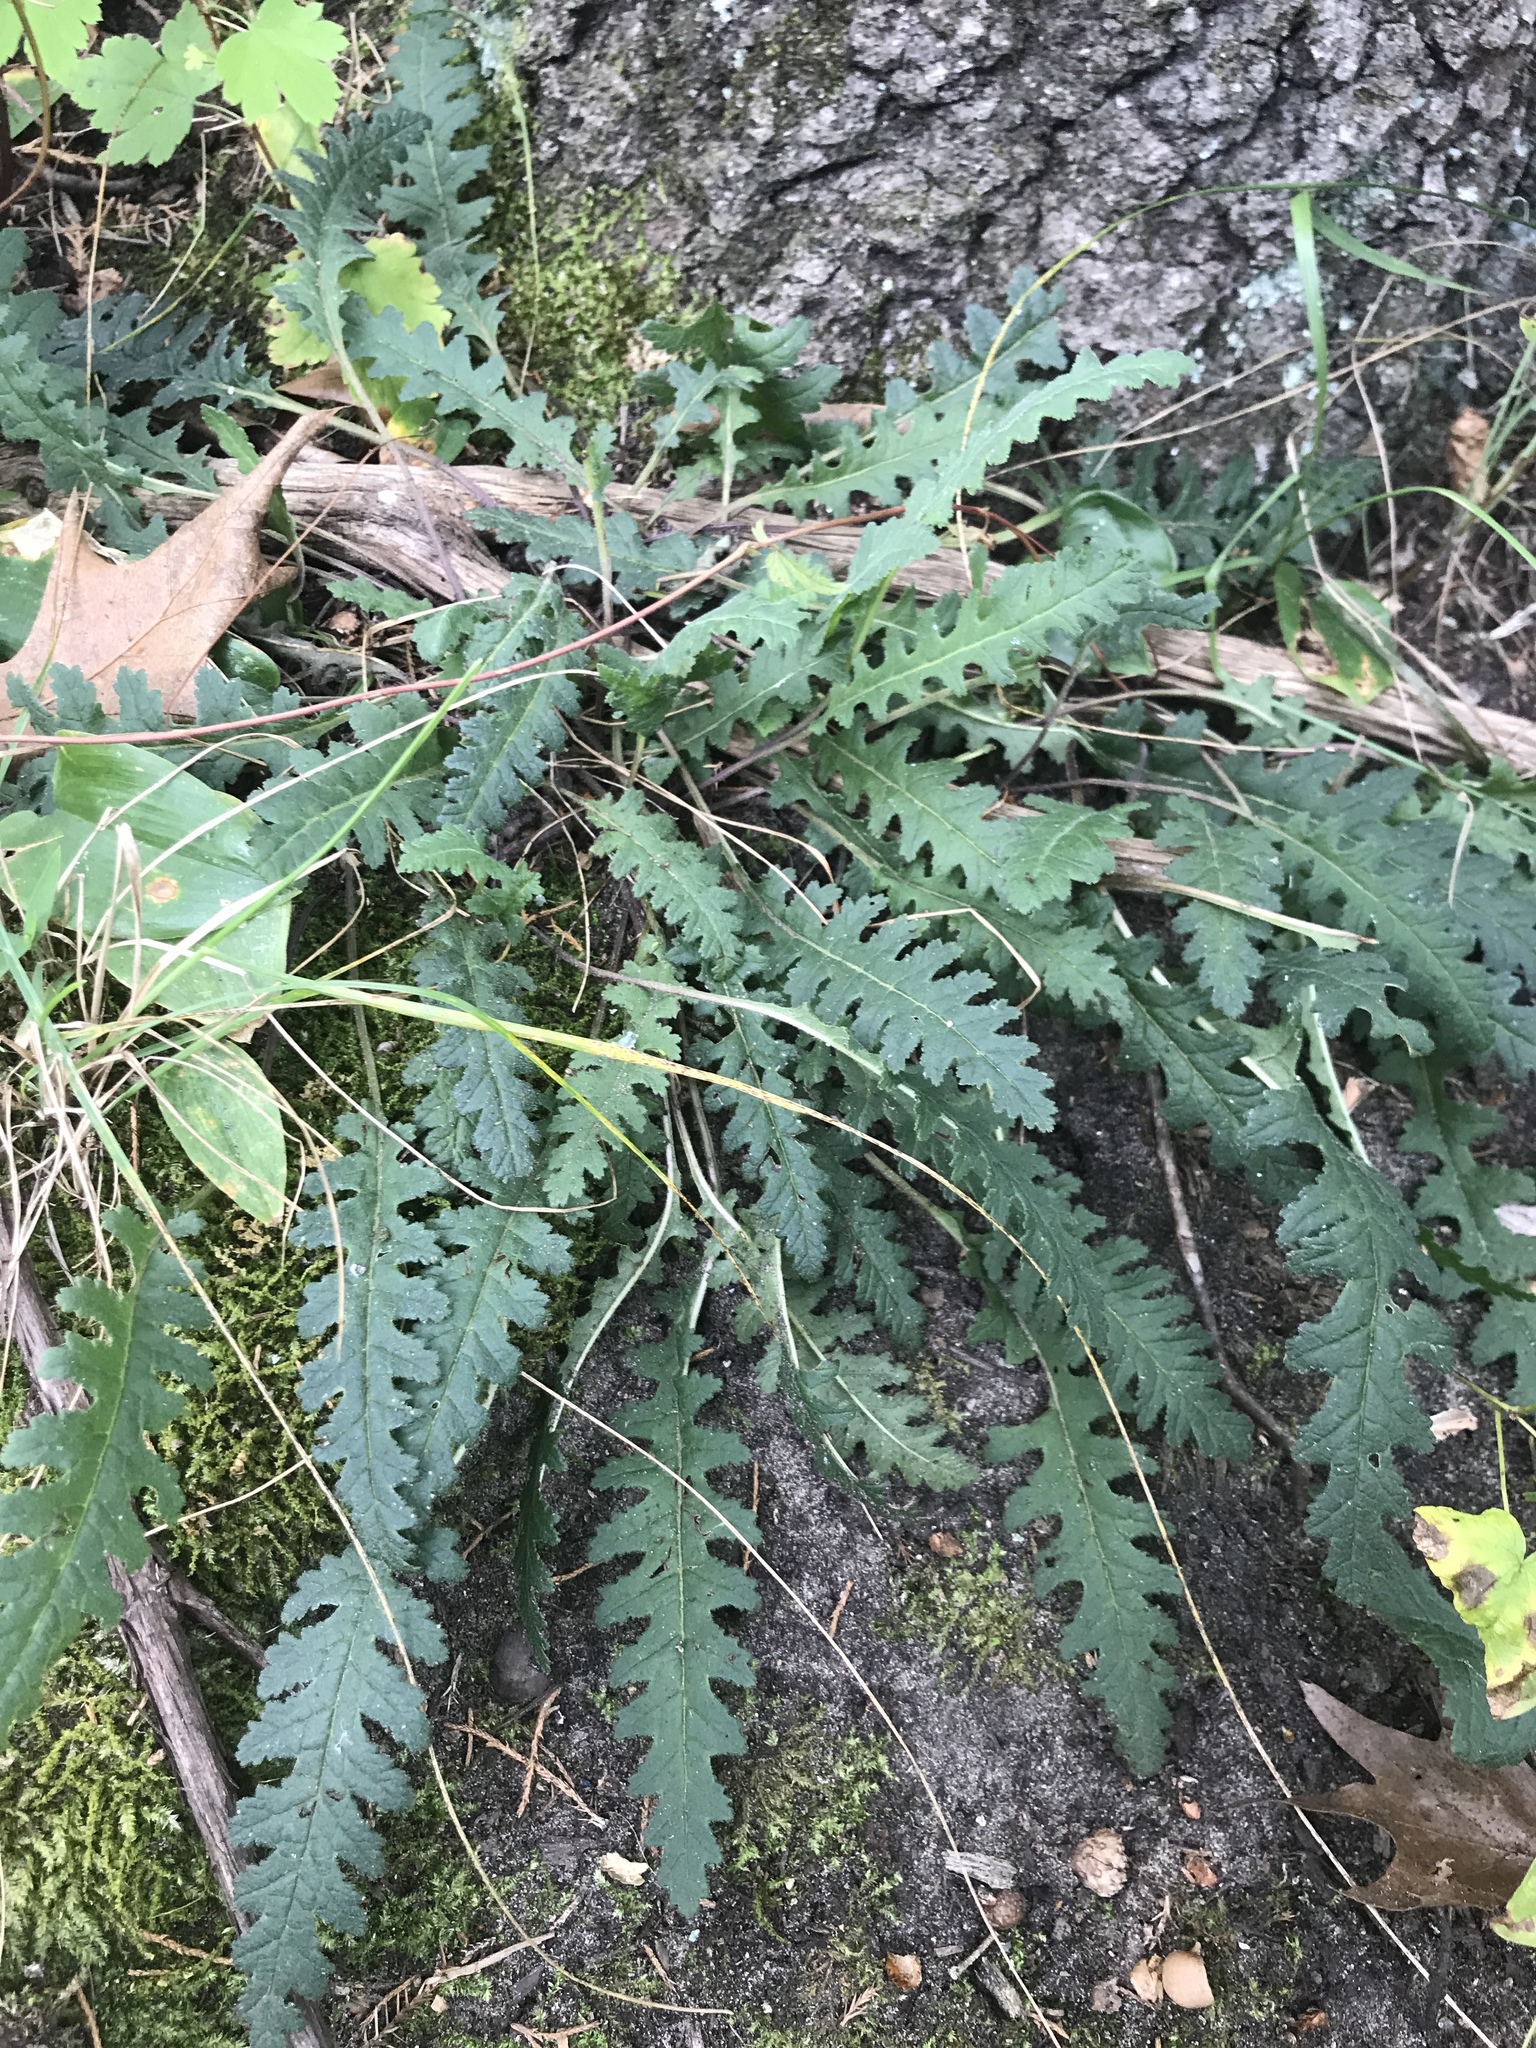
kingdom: Plantae
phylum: Tracheophyta
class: Magnoliopsida
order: Lamiales
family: Orobanchaceae
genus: Pedicularis
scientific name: Pedicularis canadensis
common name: Early lousewort
